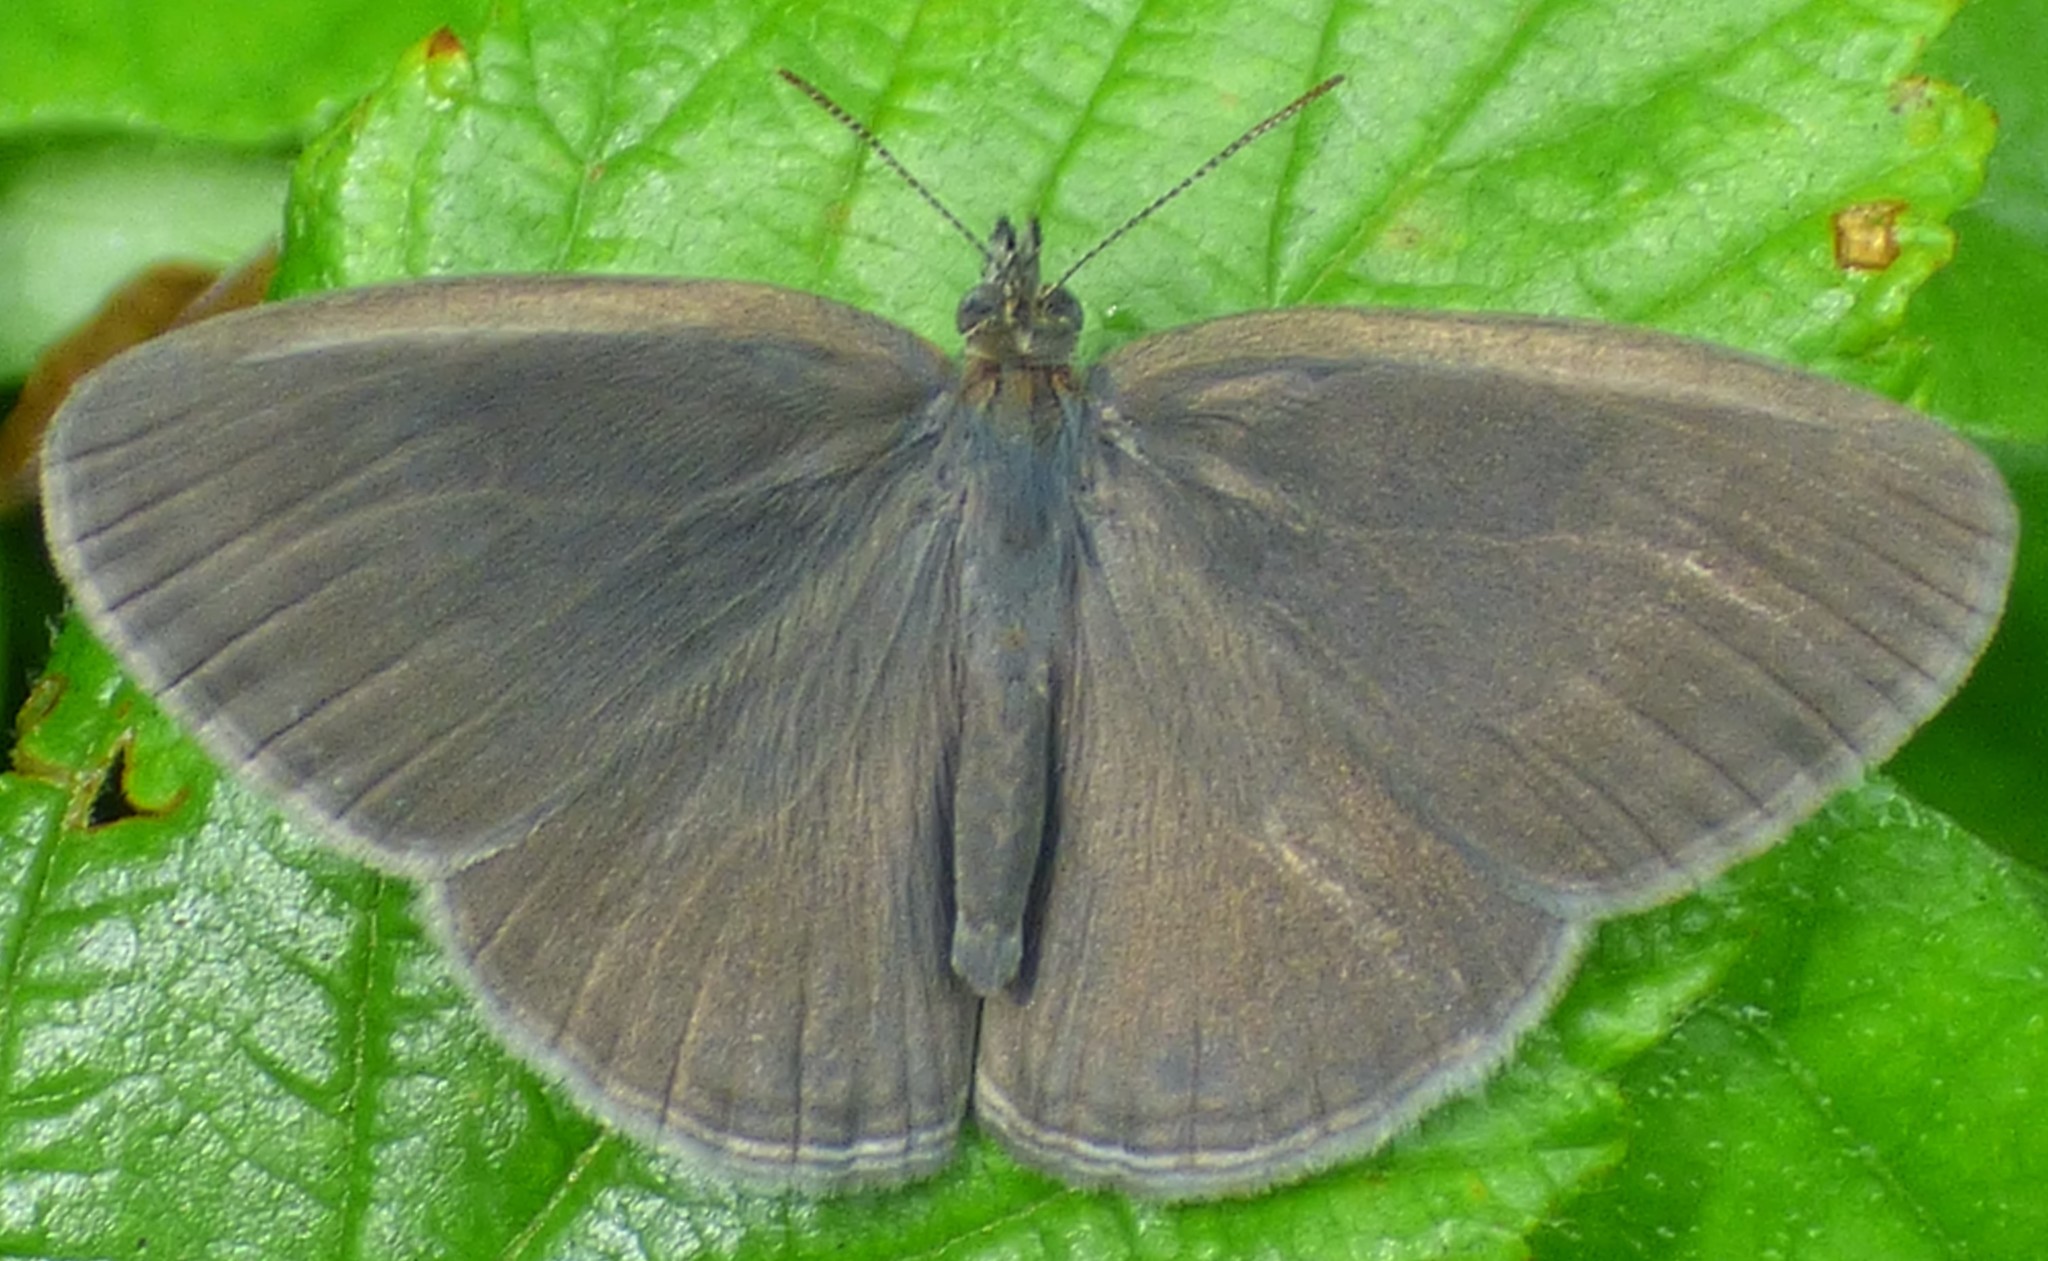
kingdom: Animalia
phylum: Arthropoda
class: Insecta
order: Lepidoptera
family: Nymphalidae
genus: Hermeuptychia
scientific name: Hermeuptychia hermes
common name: Hermes satyr
